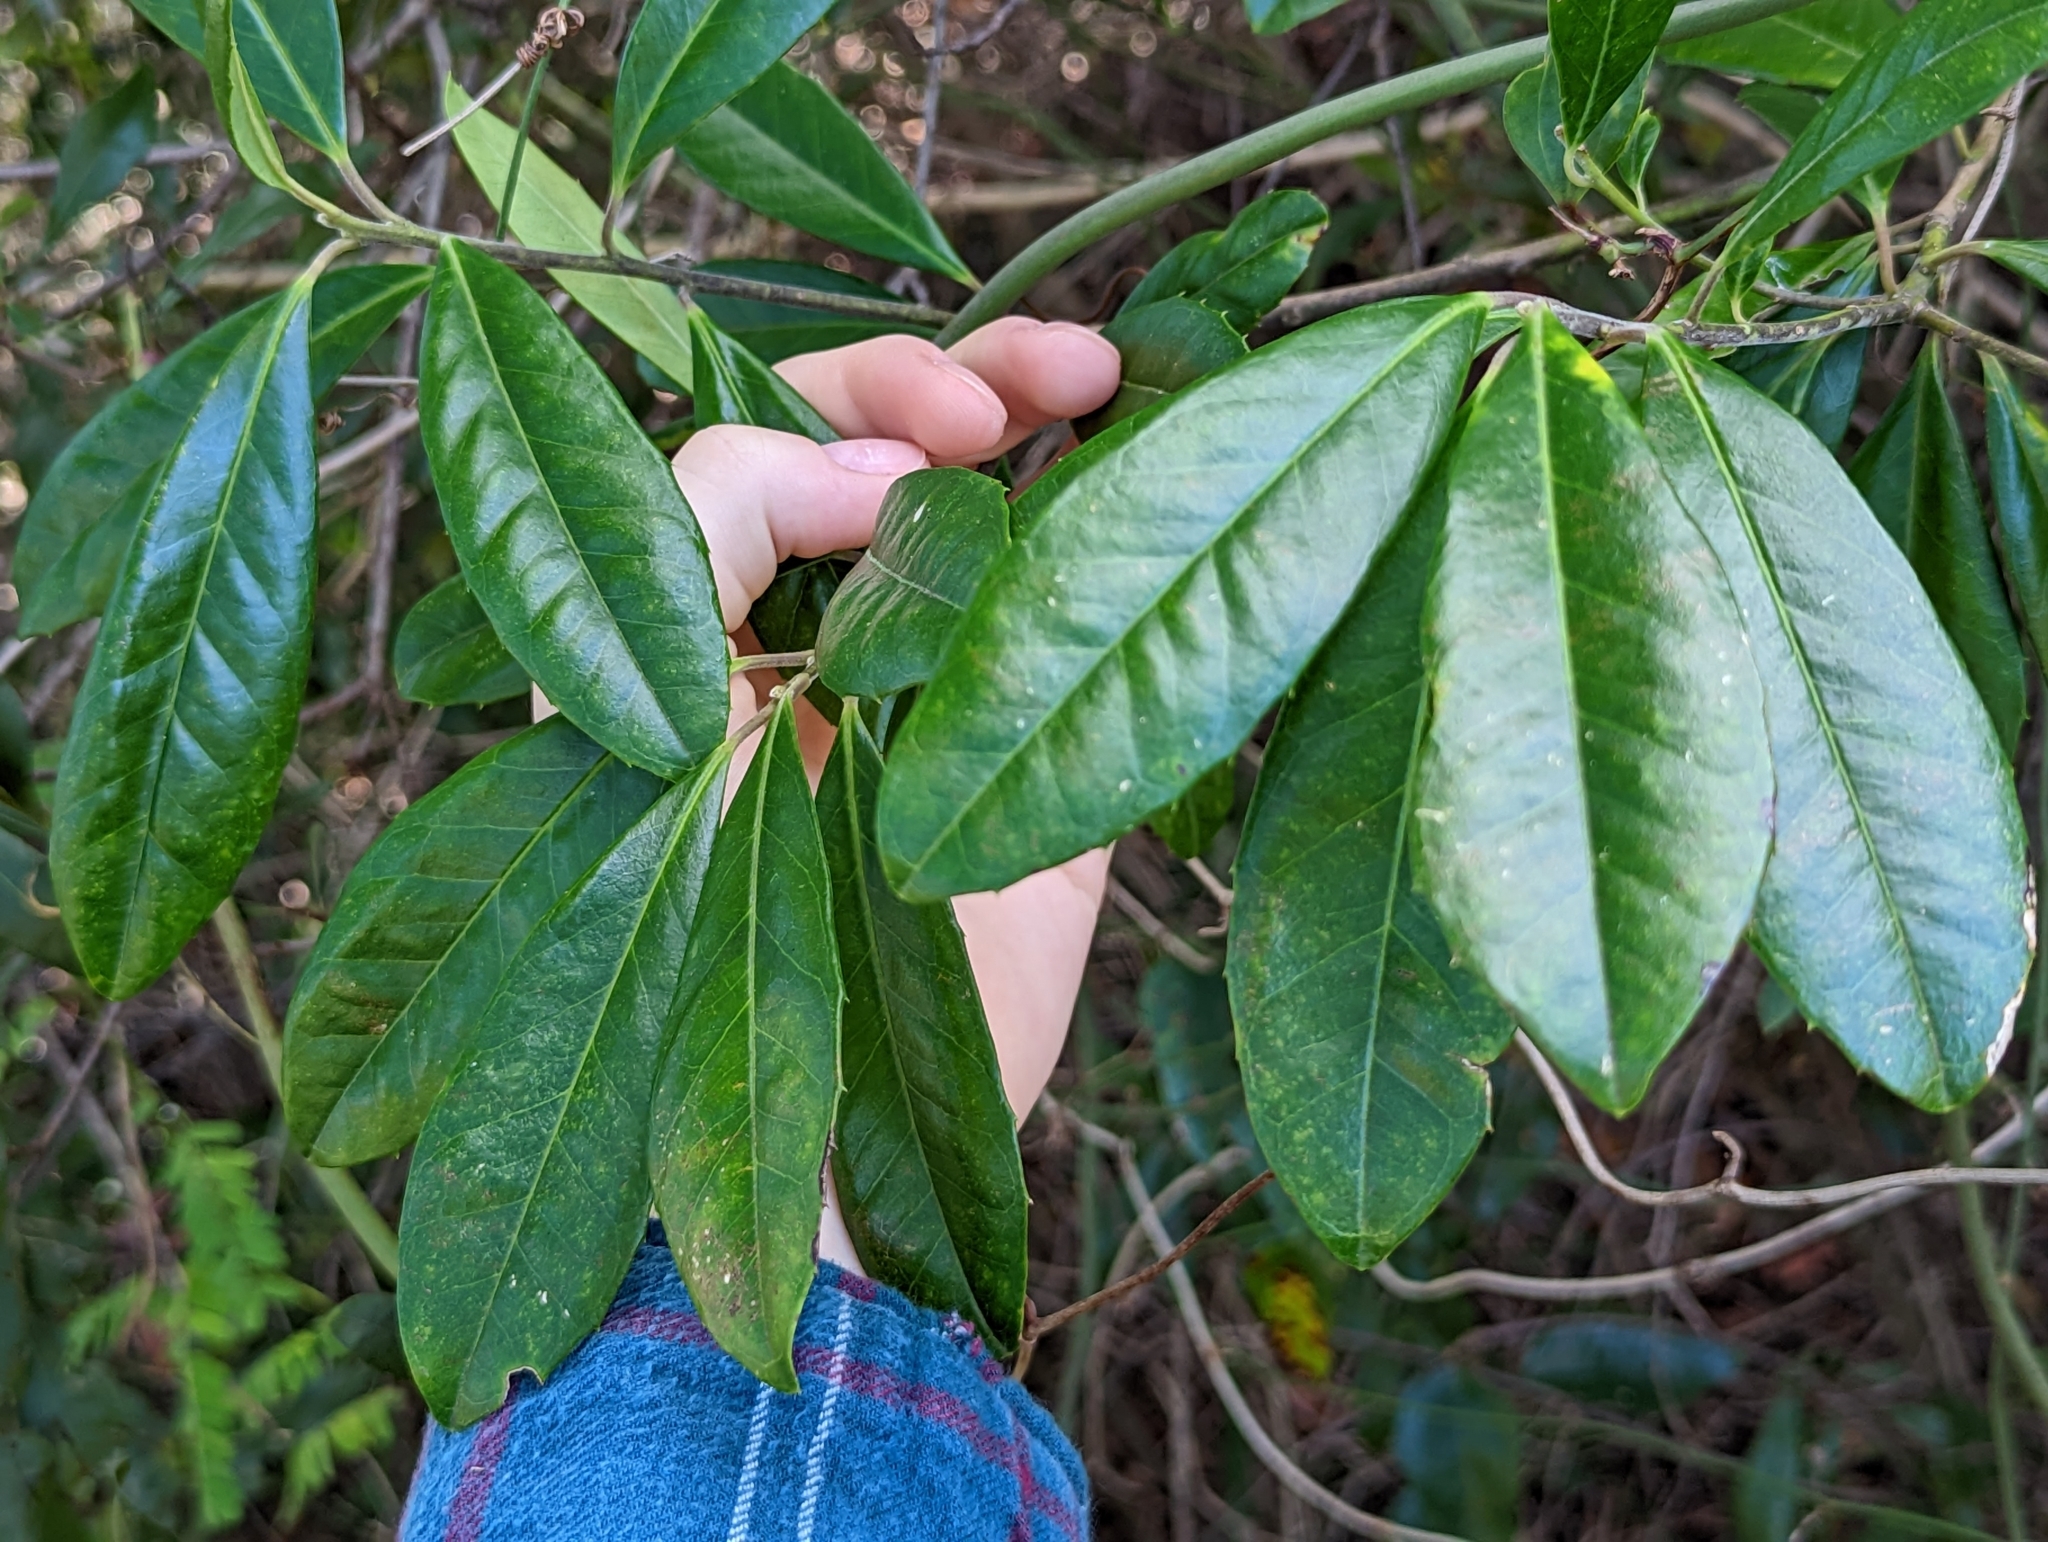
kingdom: Plantae
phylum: Tracheophyta
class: Magnoliopsida
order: Aquifoliales
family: Aquifoliaceae
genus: Ilex
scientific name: Ilex cassine
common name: Dahoon
